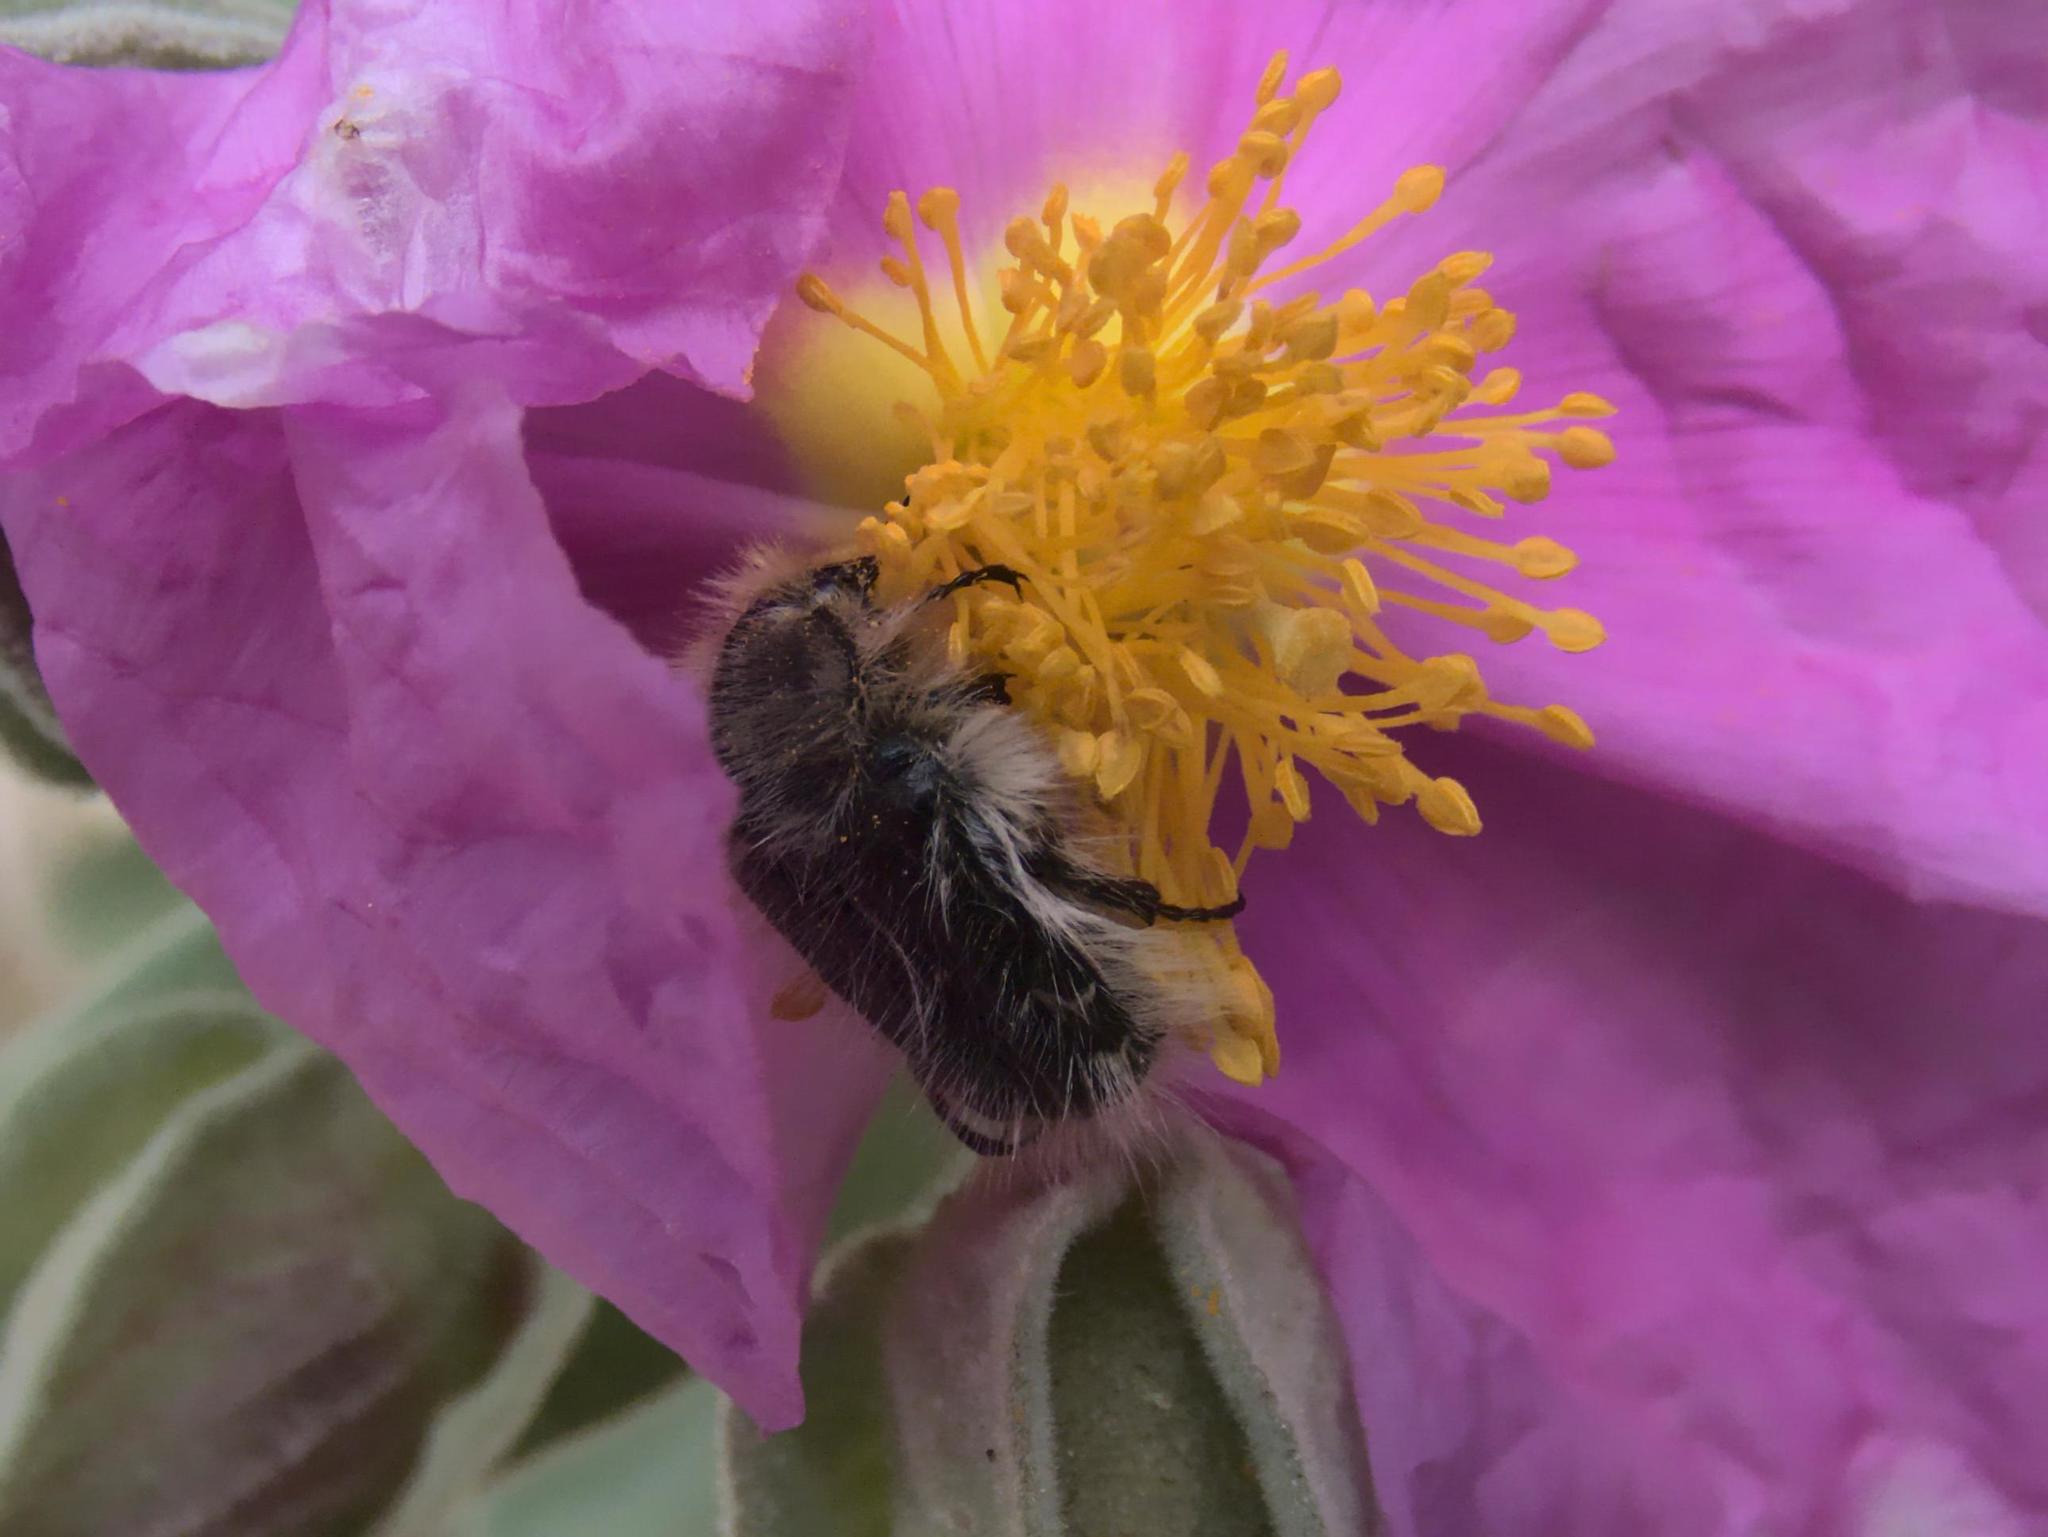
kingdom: Animalia
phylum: Arthropoda
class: Insecta
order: Coleoptera
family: Scarabaeidae
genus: Tropinota
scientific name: Tropinota squalida
